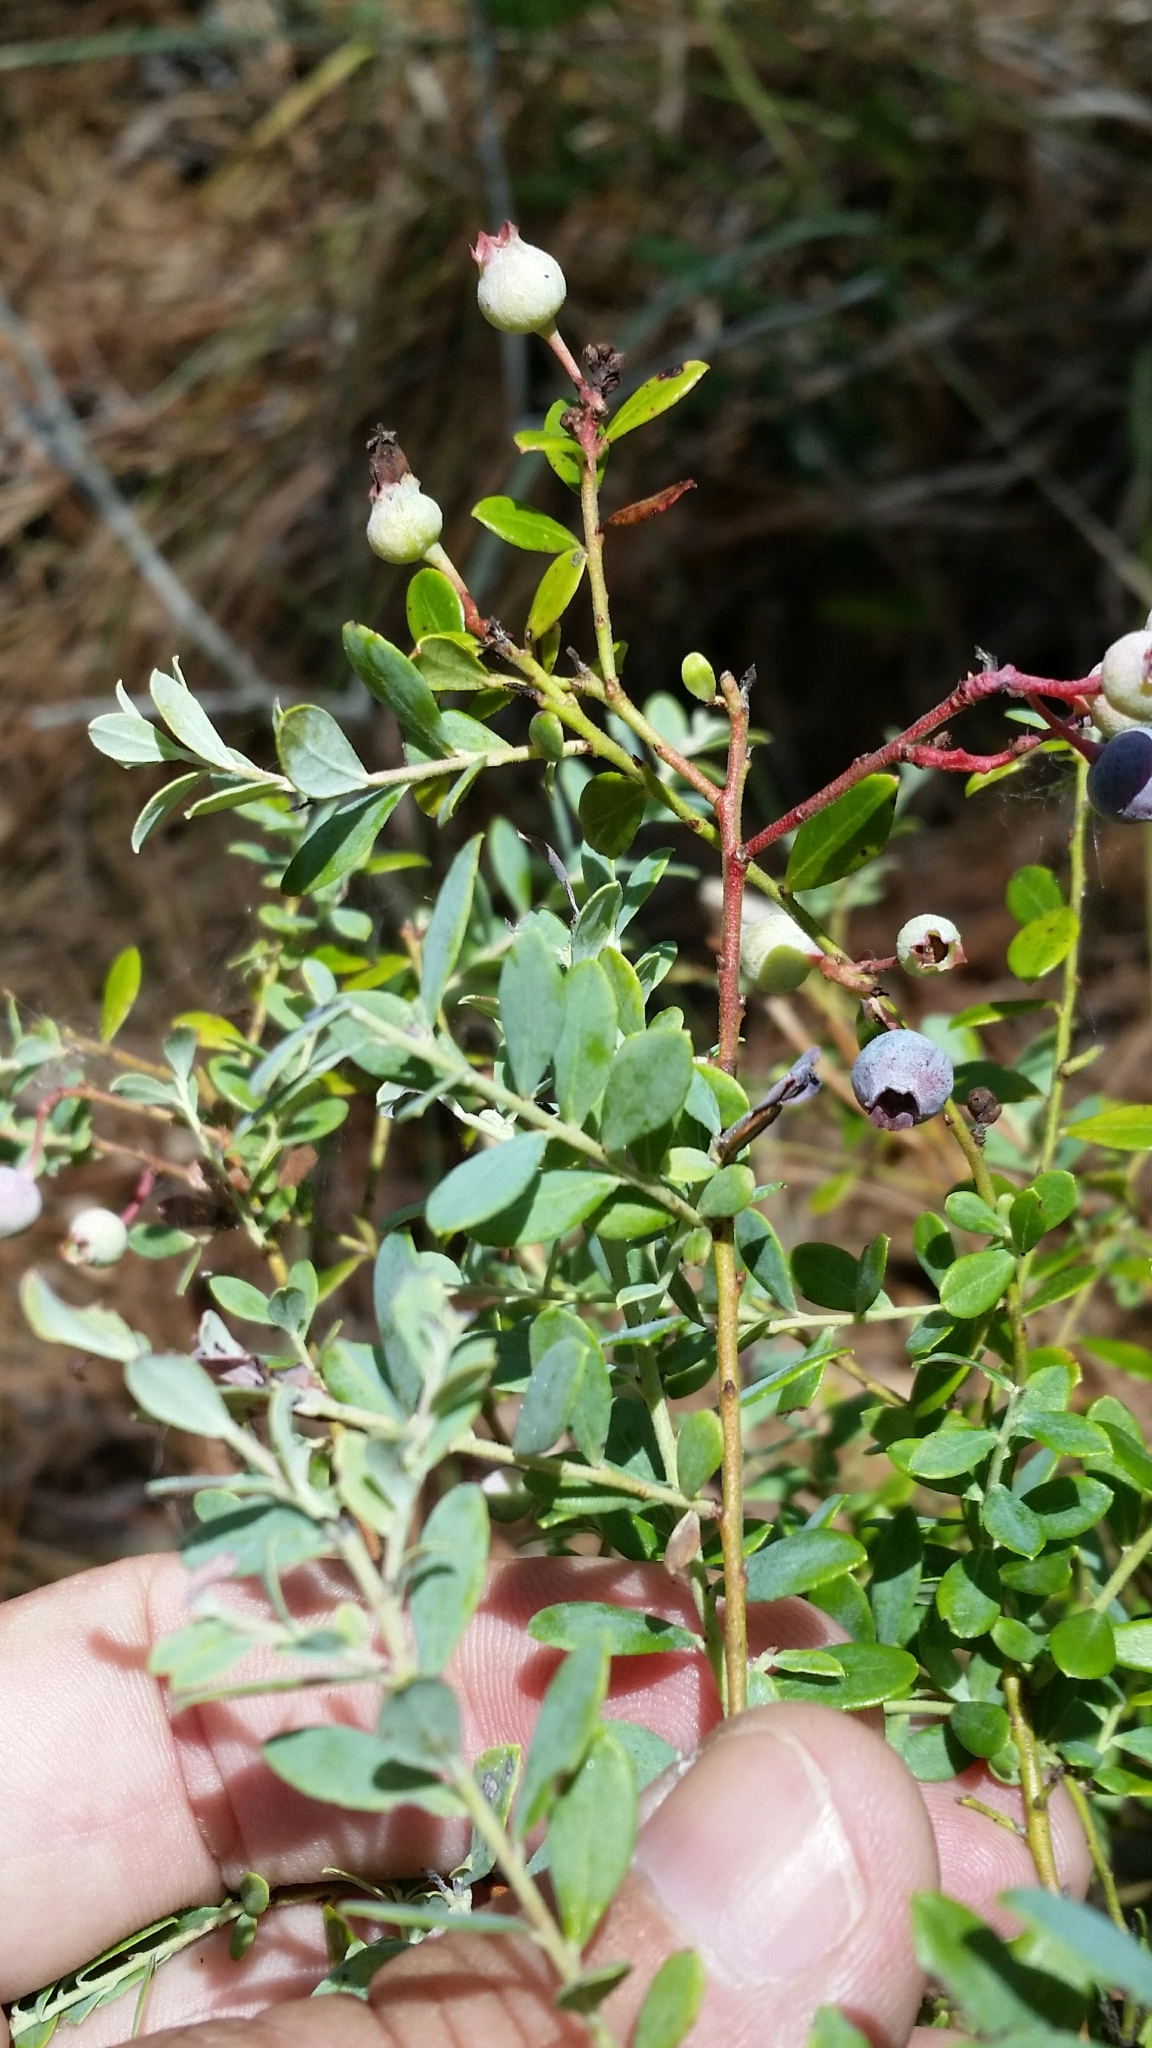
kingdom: Plantae
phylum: Tracheophyta
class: Magnoliopsida
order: Ericales
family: Ericaceae
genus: Vaccinium
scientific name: Vaccinium darrowii
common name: Darrow's blueberry
